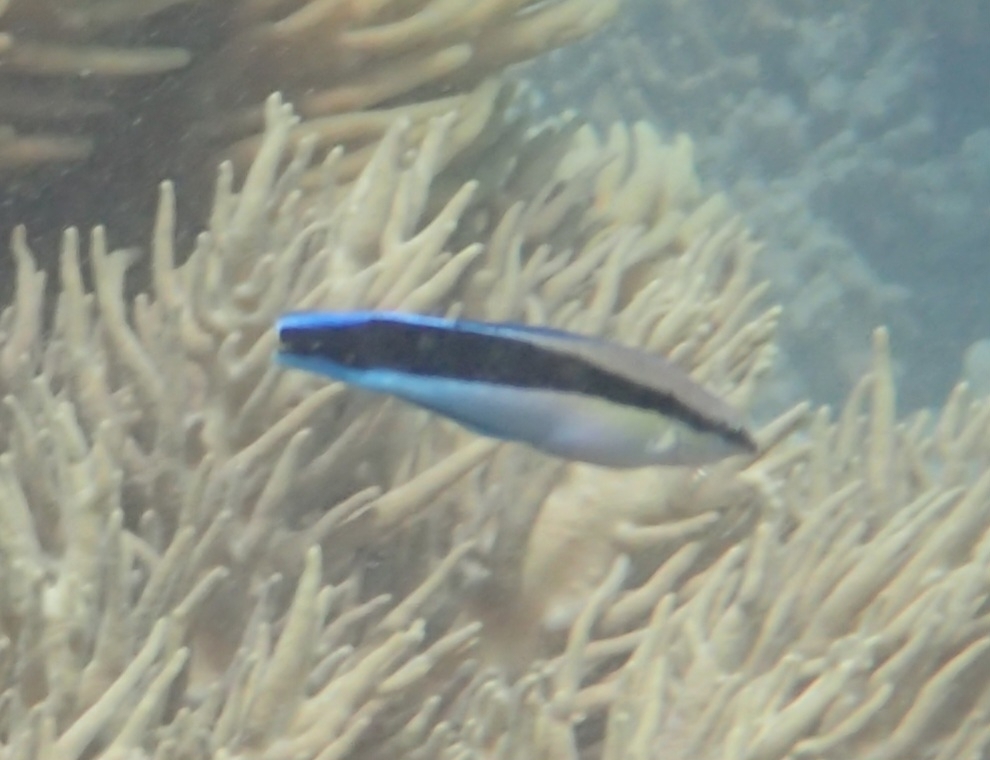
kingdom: Animalia
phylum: Chordata
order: Perciformes
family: Labridae
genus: Labroides
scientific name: Labroides dimidiatus
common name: Blue diesel wrasse
